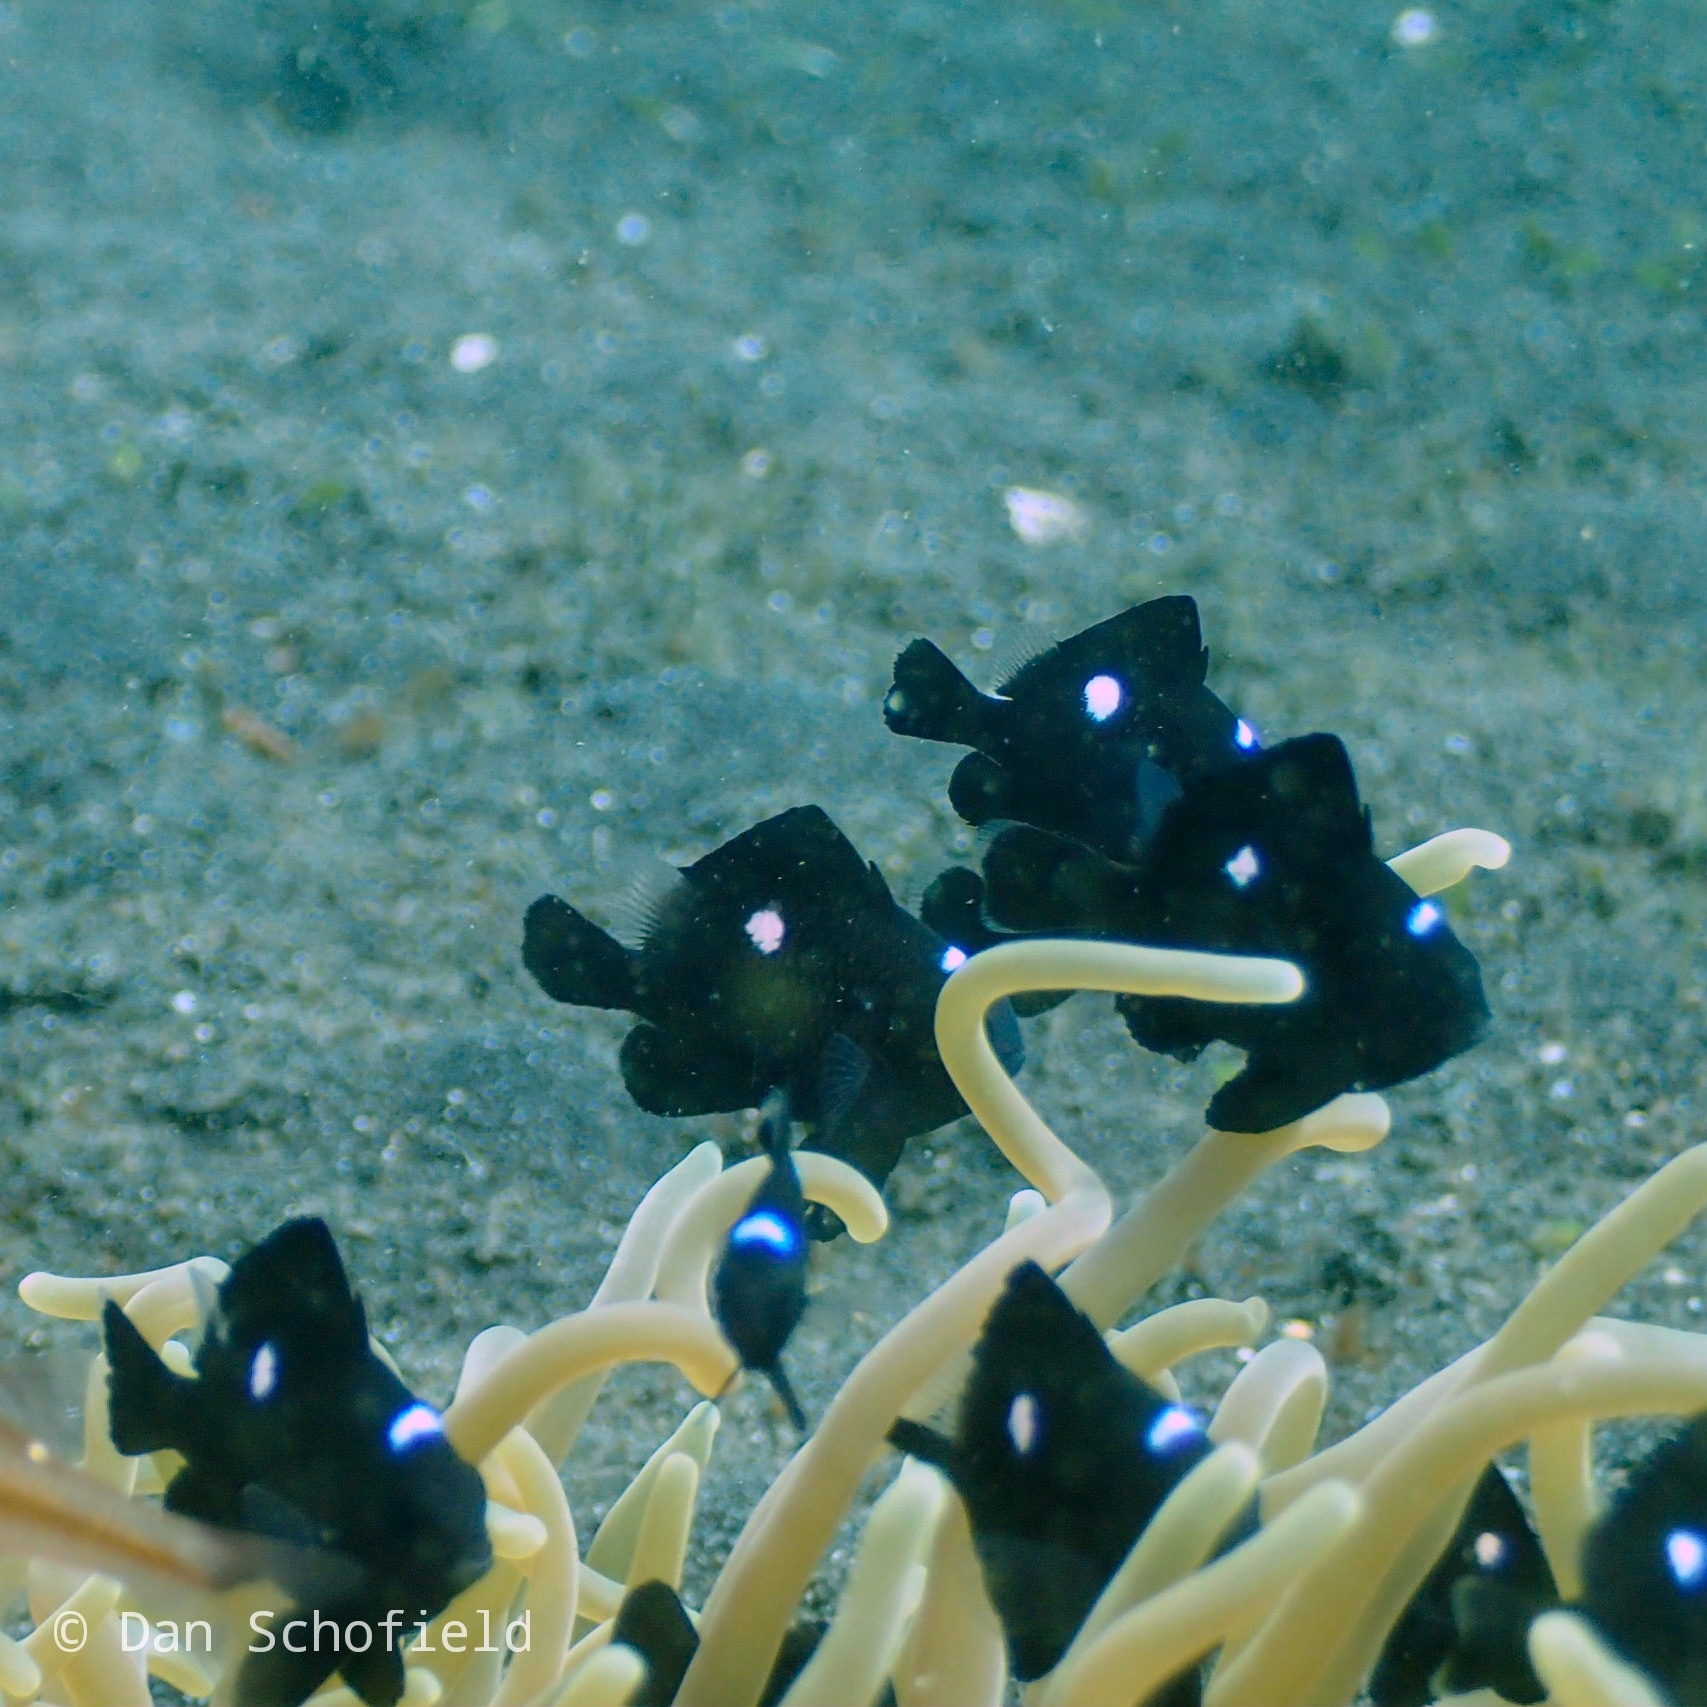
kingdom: Animalia
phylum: Chordata
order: Perciformes
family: Pomacentridae
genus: Dascyllus
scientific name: Dascyllus trimaculatus
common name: Threespot dascyllus
